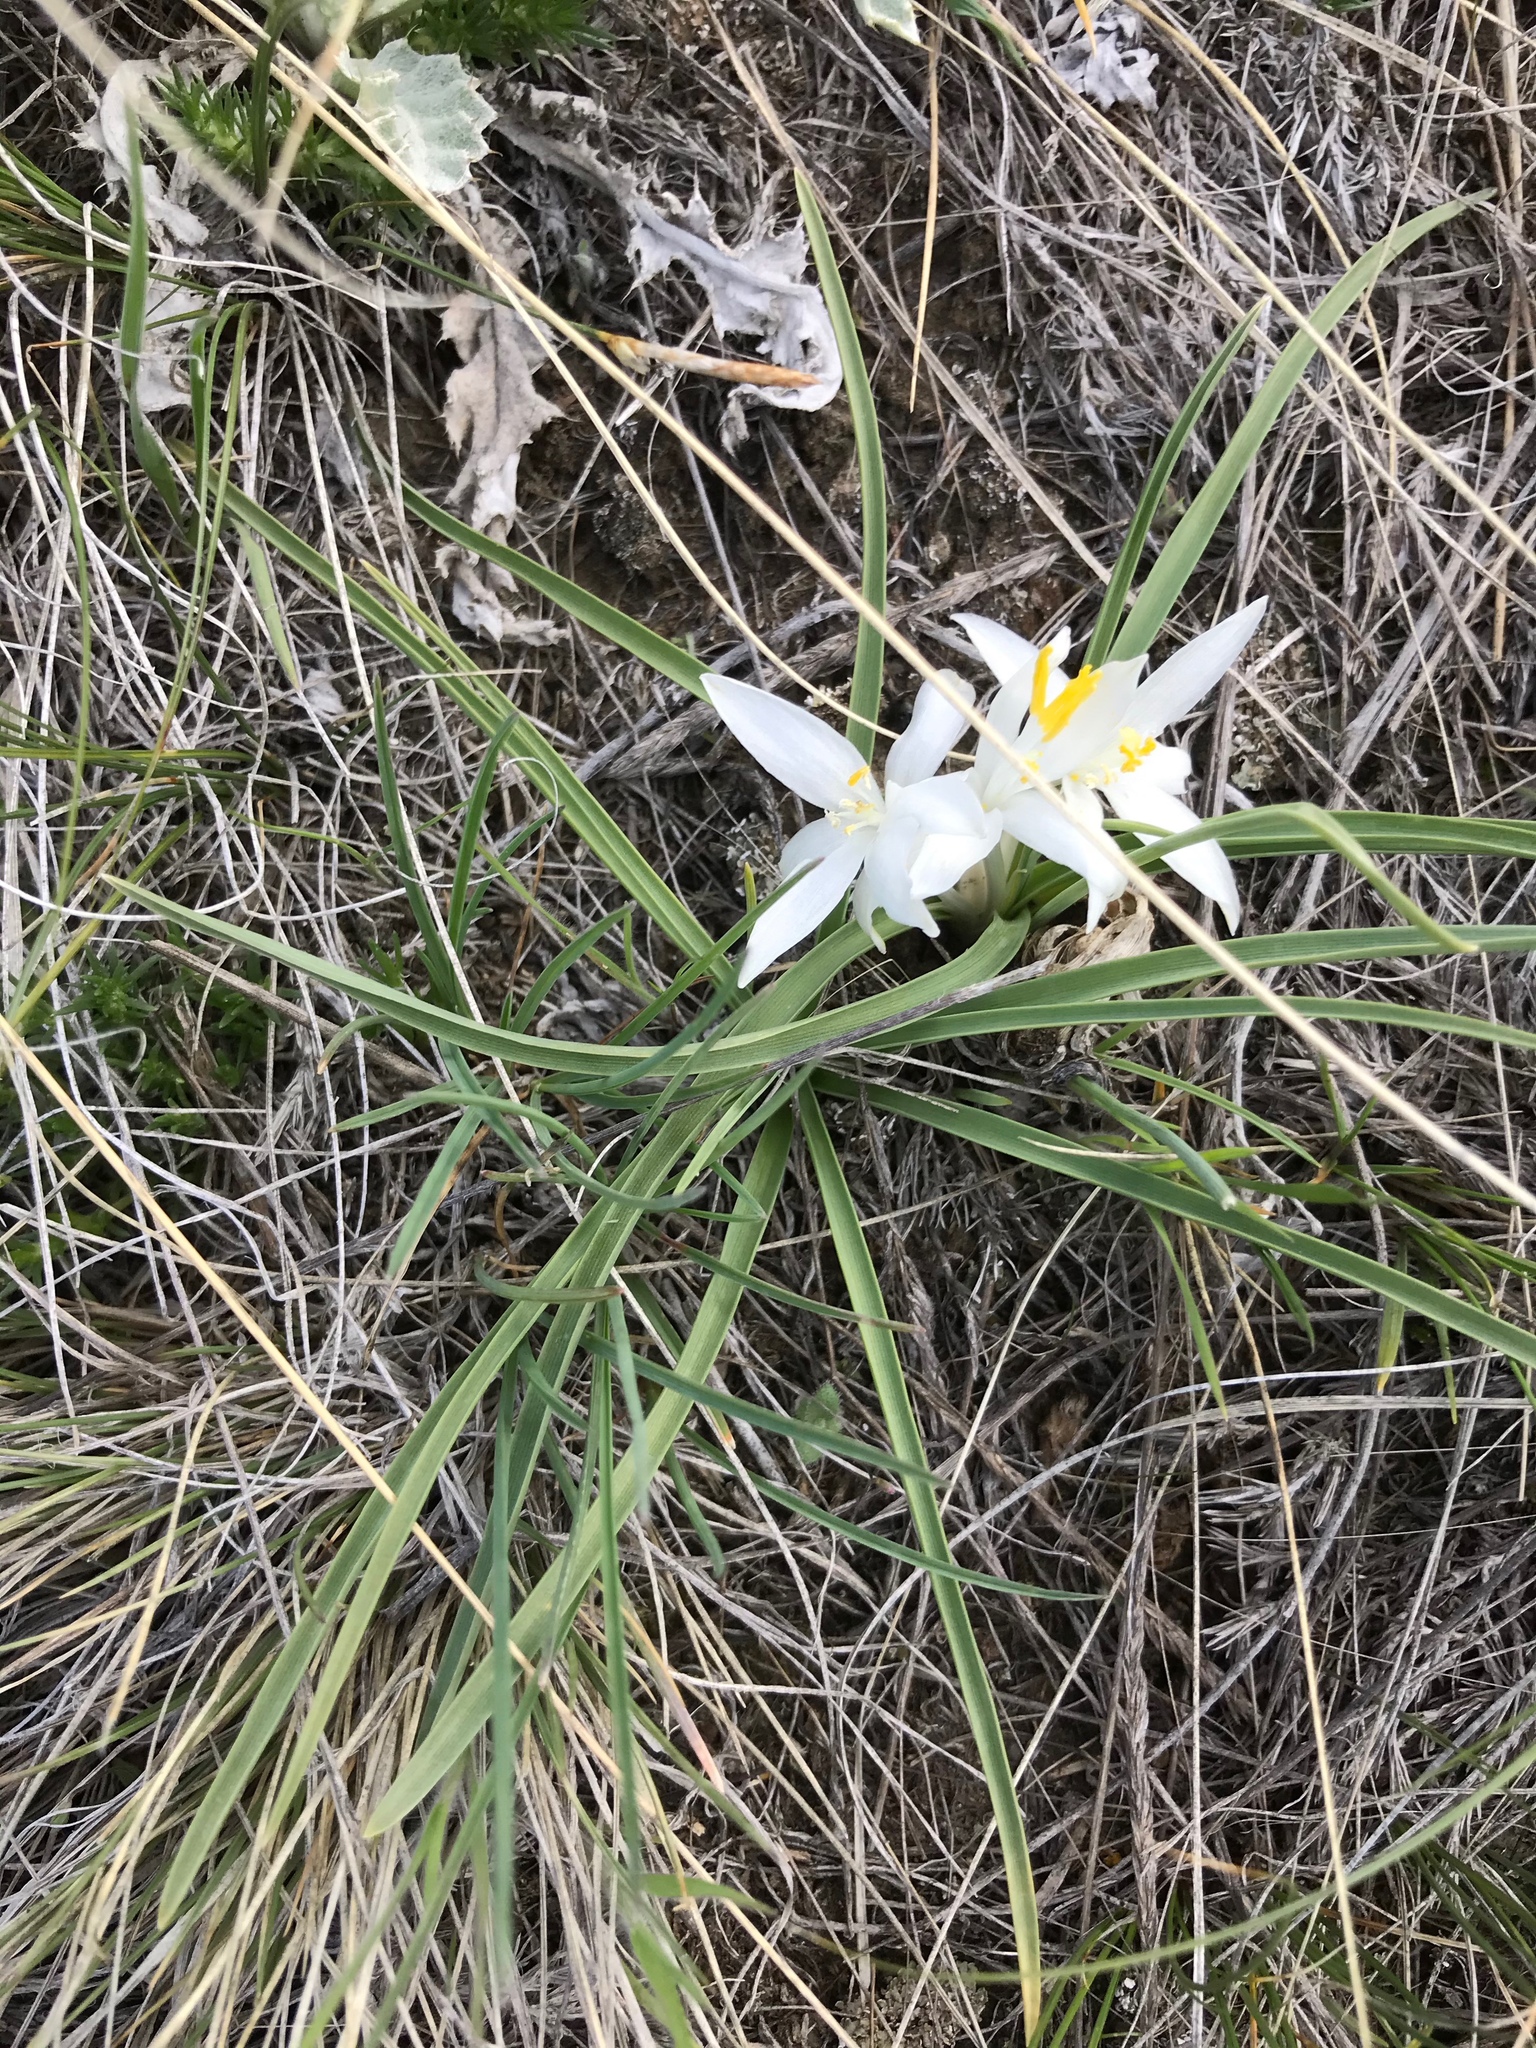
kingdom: Plantae
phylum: Tracheophyta
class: Liliopsida
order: Asparagales
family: Asparagaceae
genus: Leucocrinum
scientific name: Leucocrinum montanum
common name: Mountain-lily
